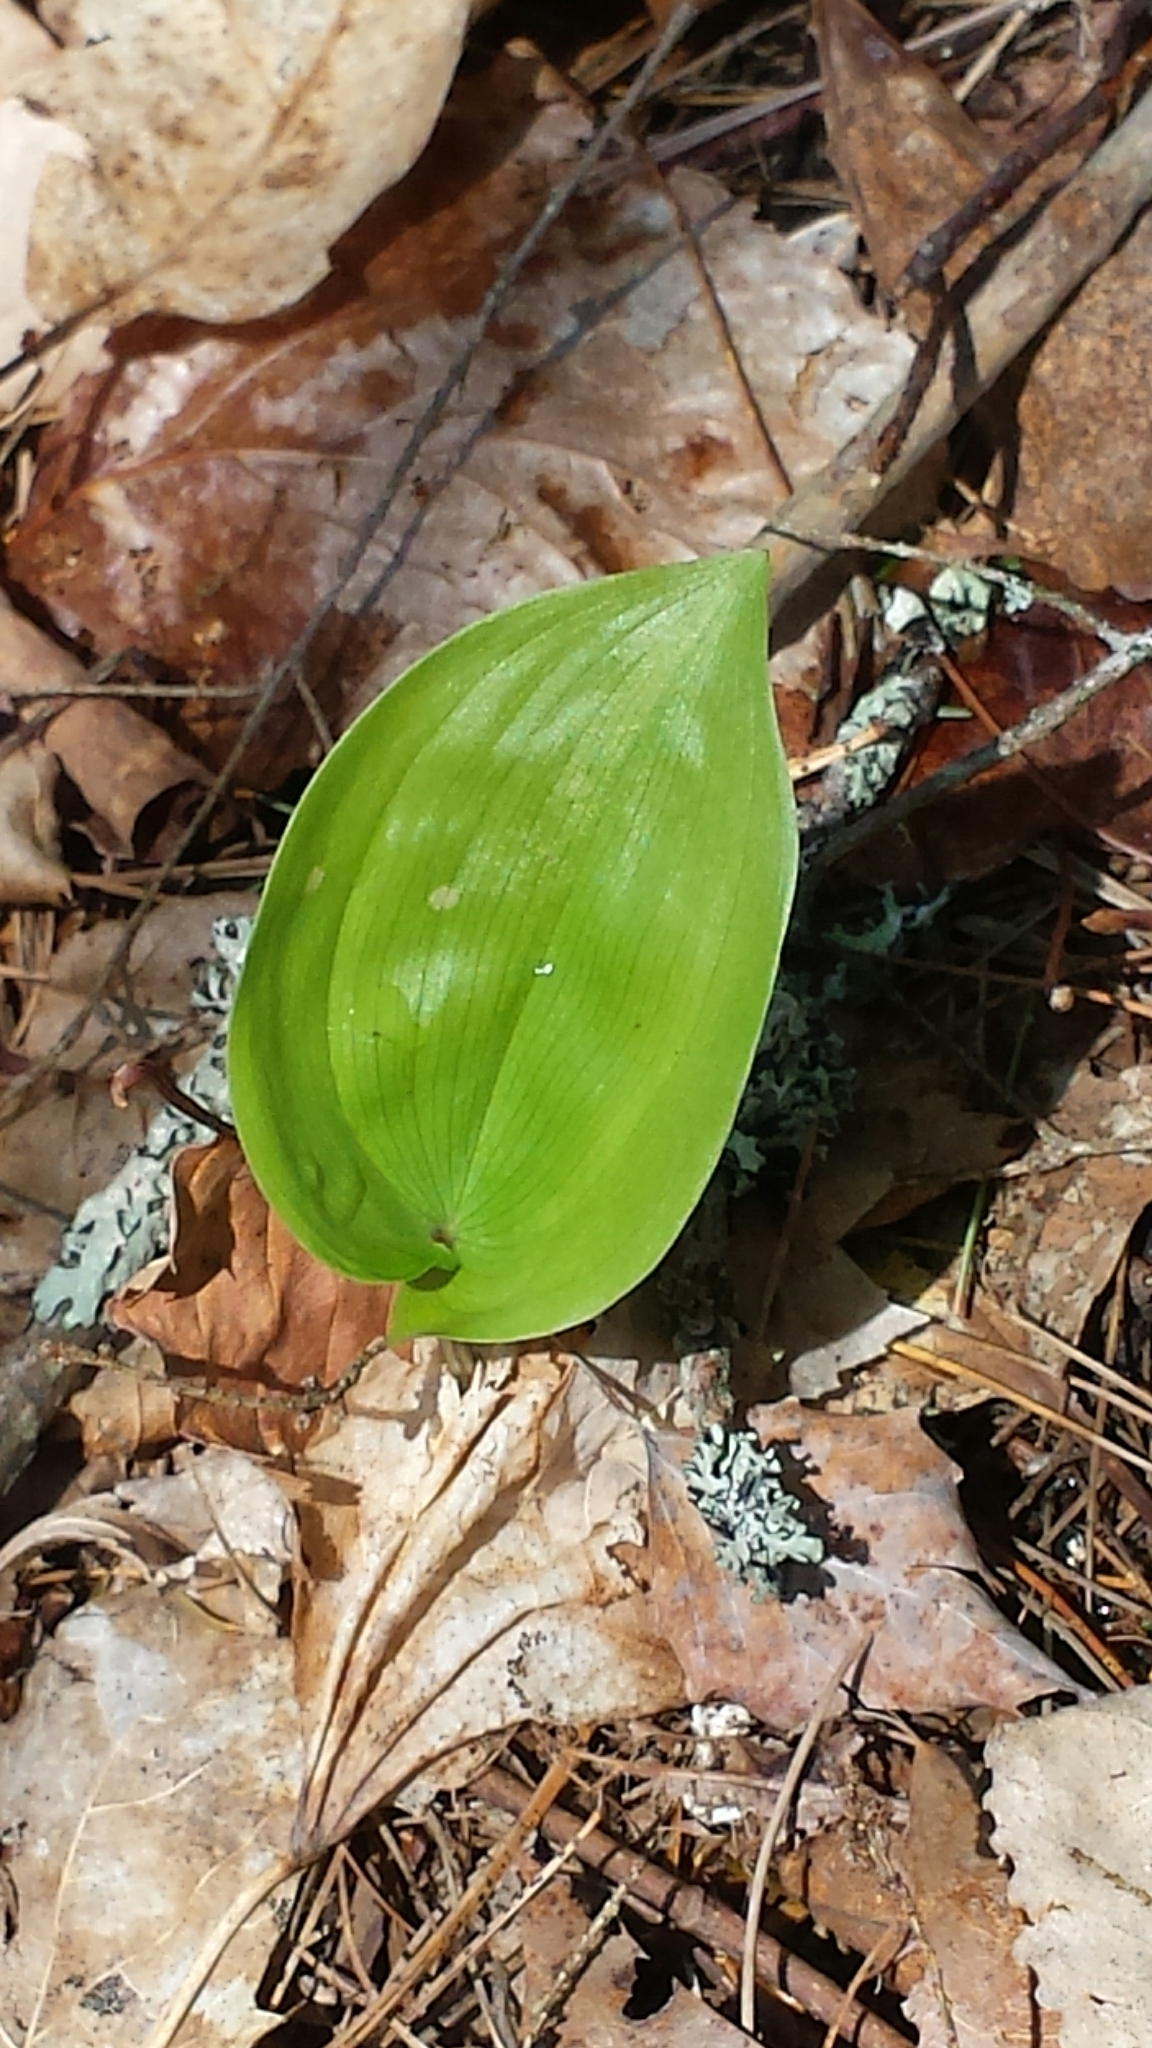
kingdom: Plantae
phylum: Tracheophyta
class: Liliopsida
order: Asparagales
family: Asparagaceae
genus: Maianthemum
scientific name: Maianthemum canadense
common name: False lily-of-the-valley
